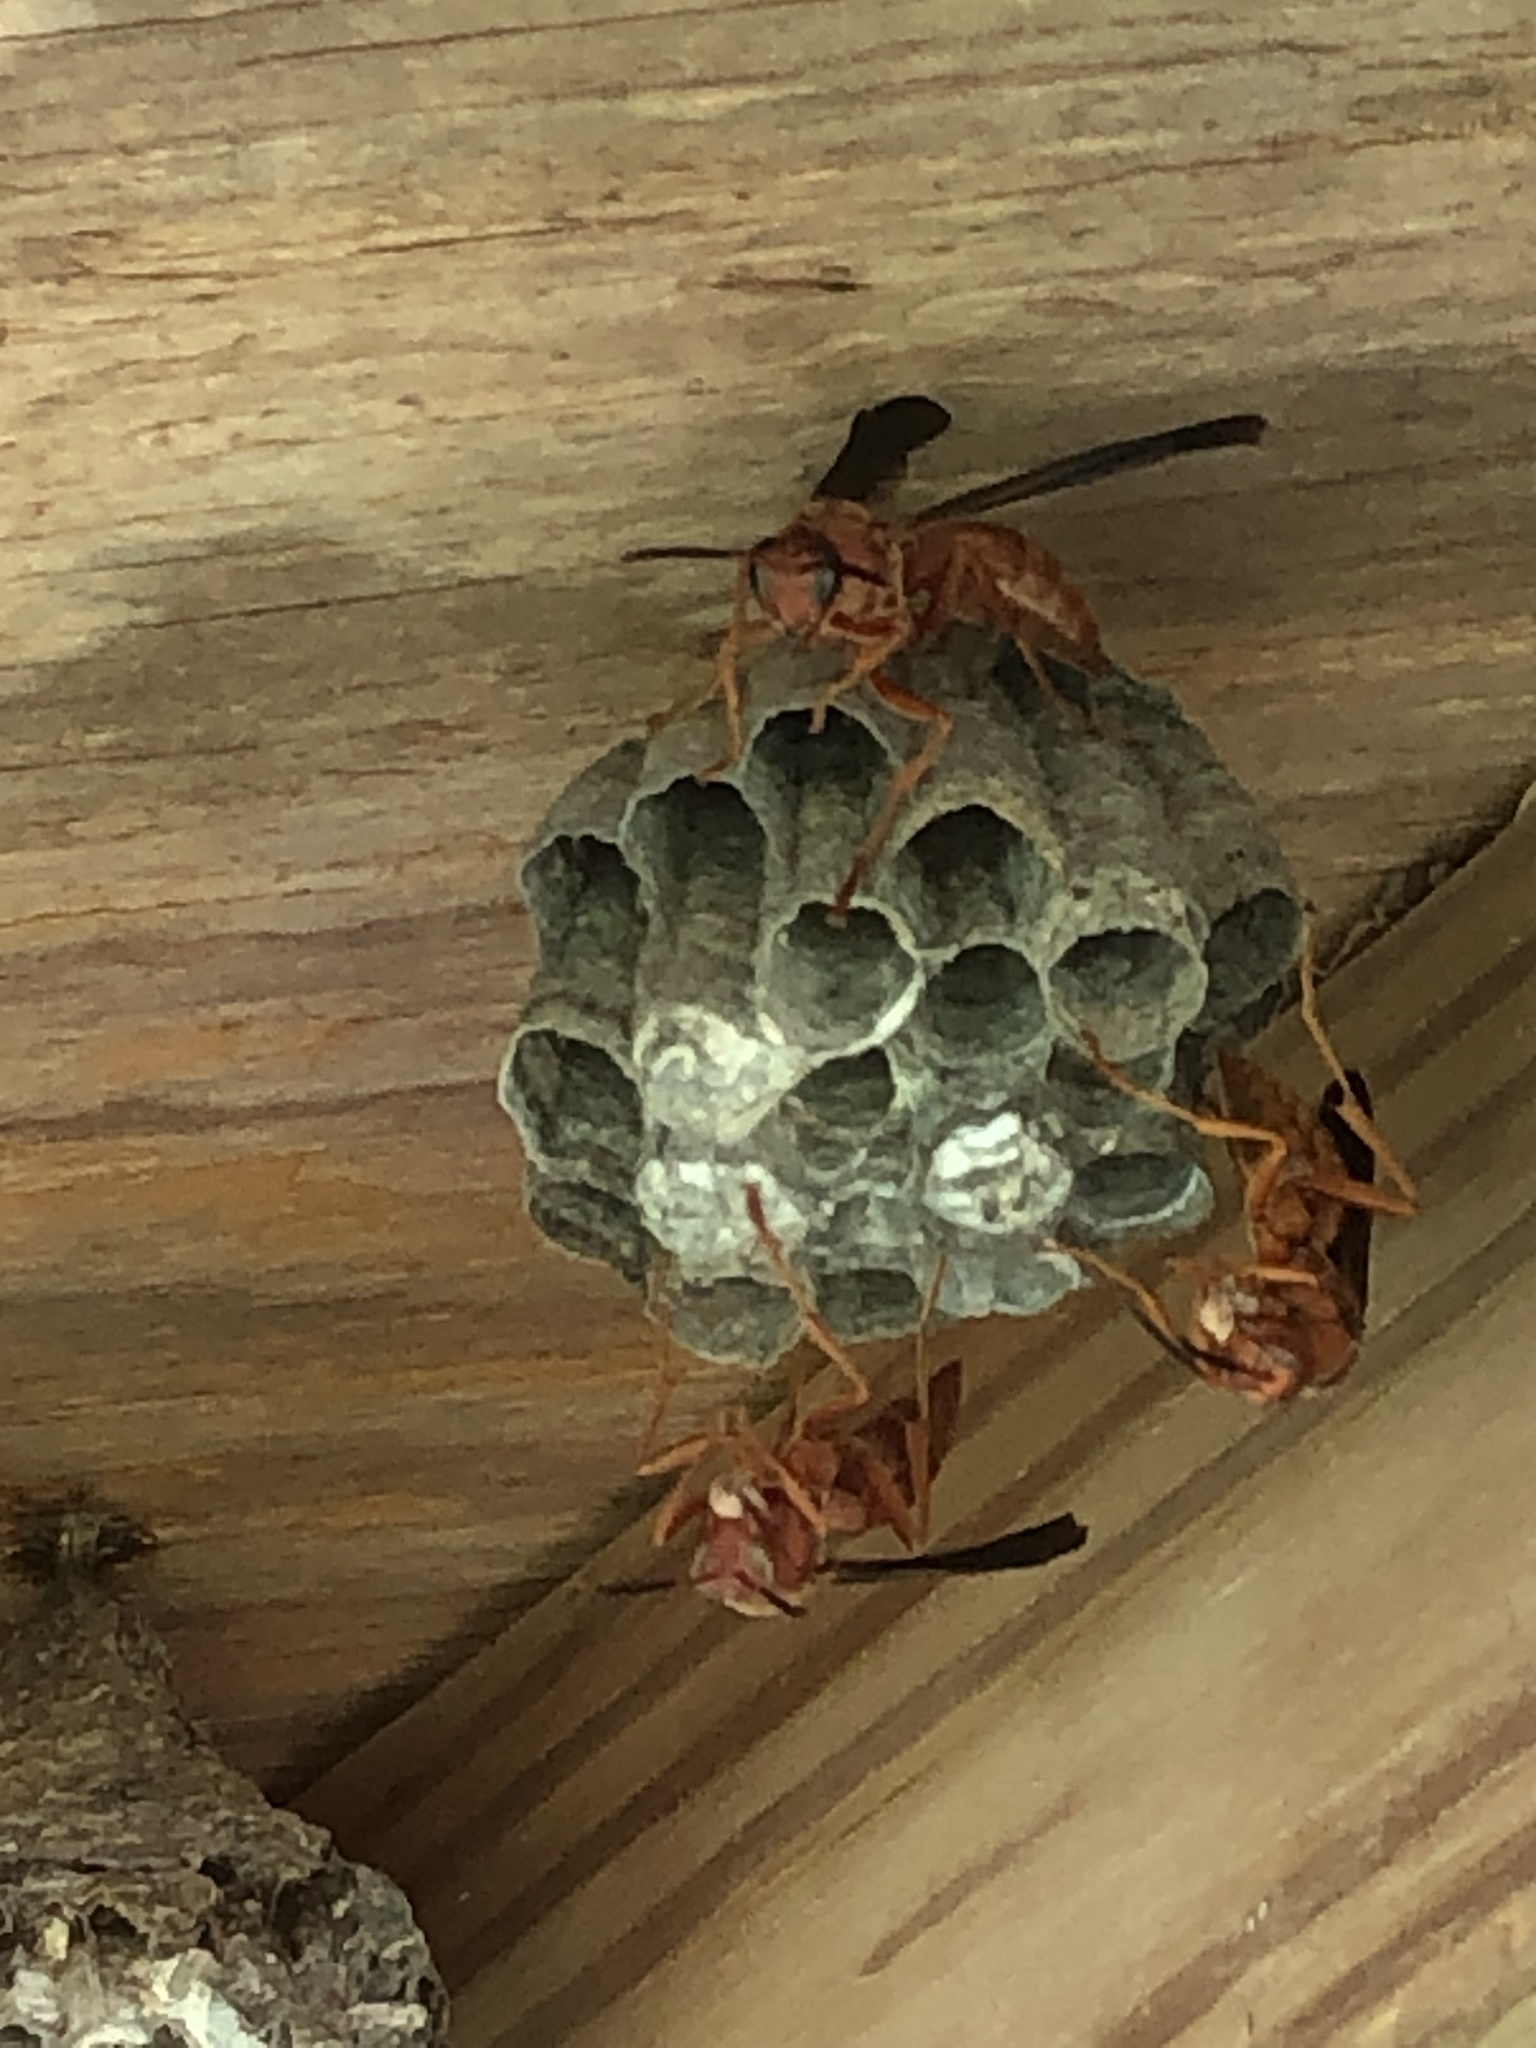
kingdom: Animalia
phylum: Arthropoda
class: Insecta
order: Hymenoptera
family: Vespidae
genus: Fuscopolistes
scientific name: Fuscopolistes
